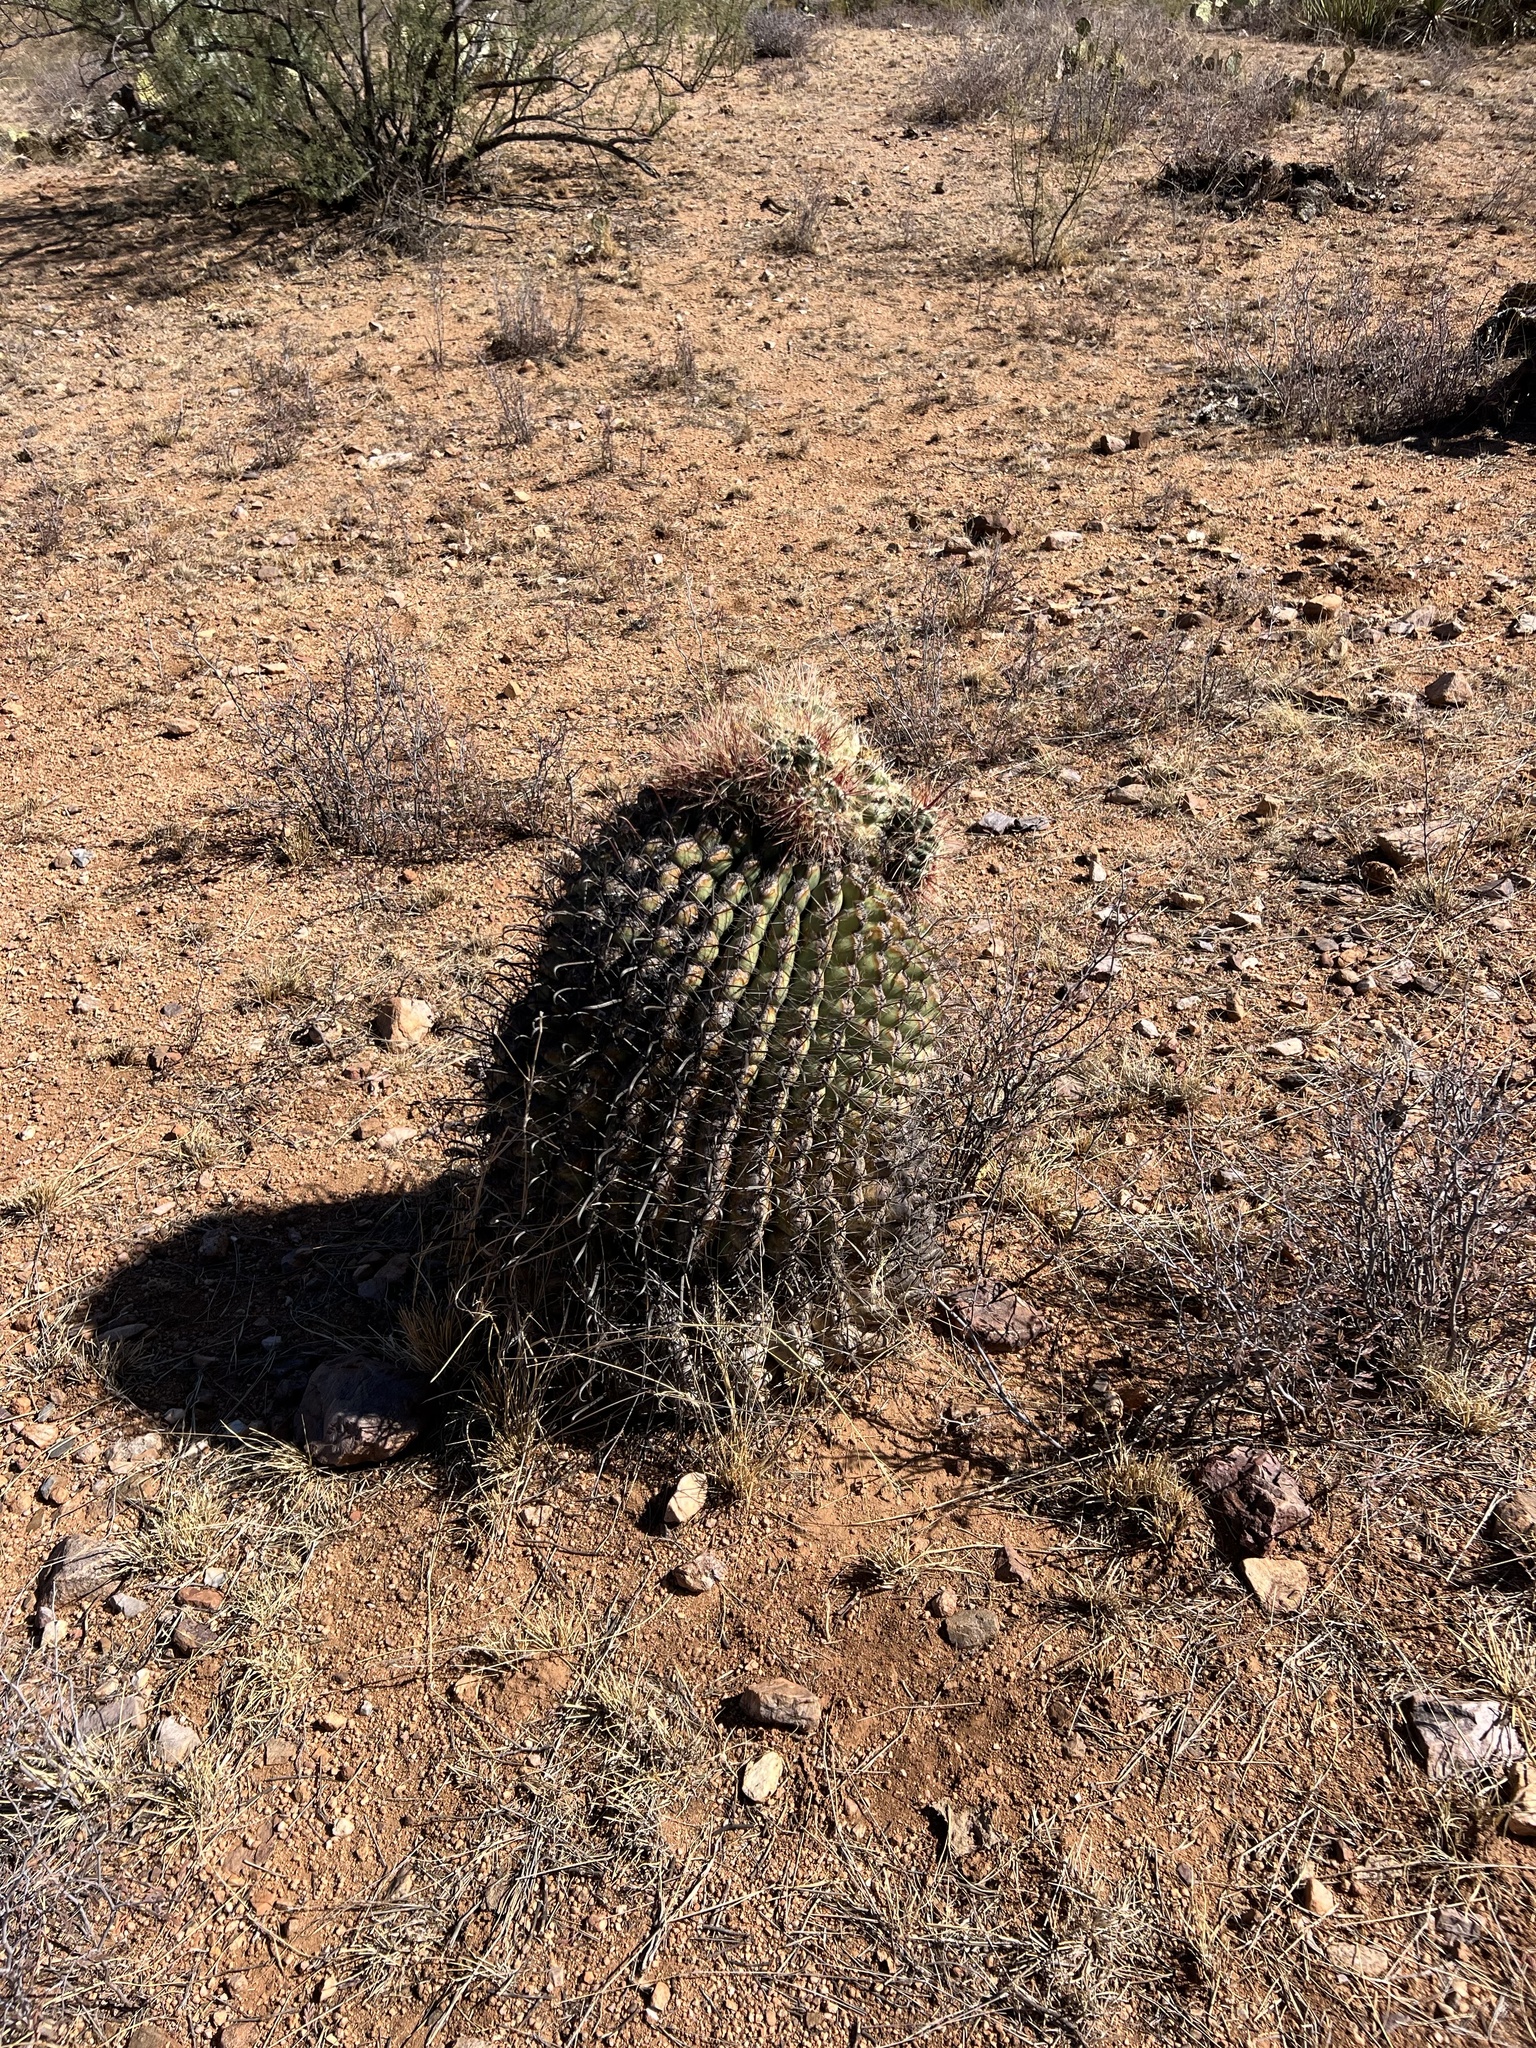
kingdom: Plantae
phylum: Tracheophyta
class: Magnoliopsida
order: Caryophyllales
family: Cactaceae
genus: Ferocactus
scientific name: Ferocactus wislizeni
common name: Candy barrel cactus
